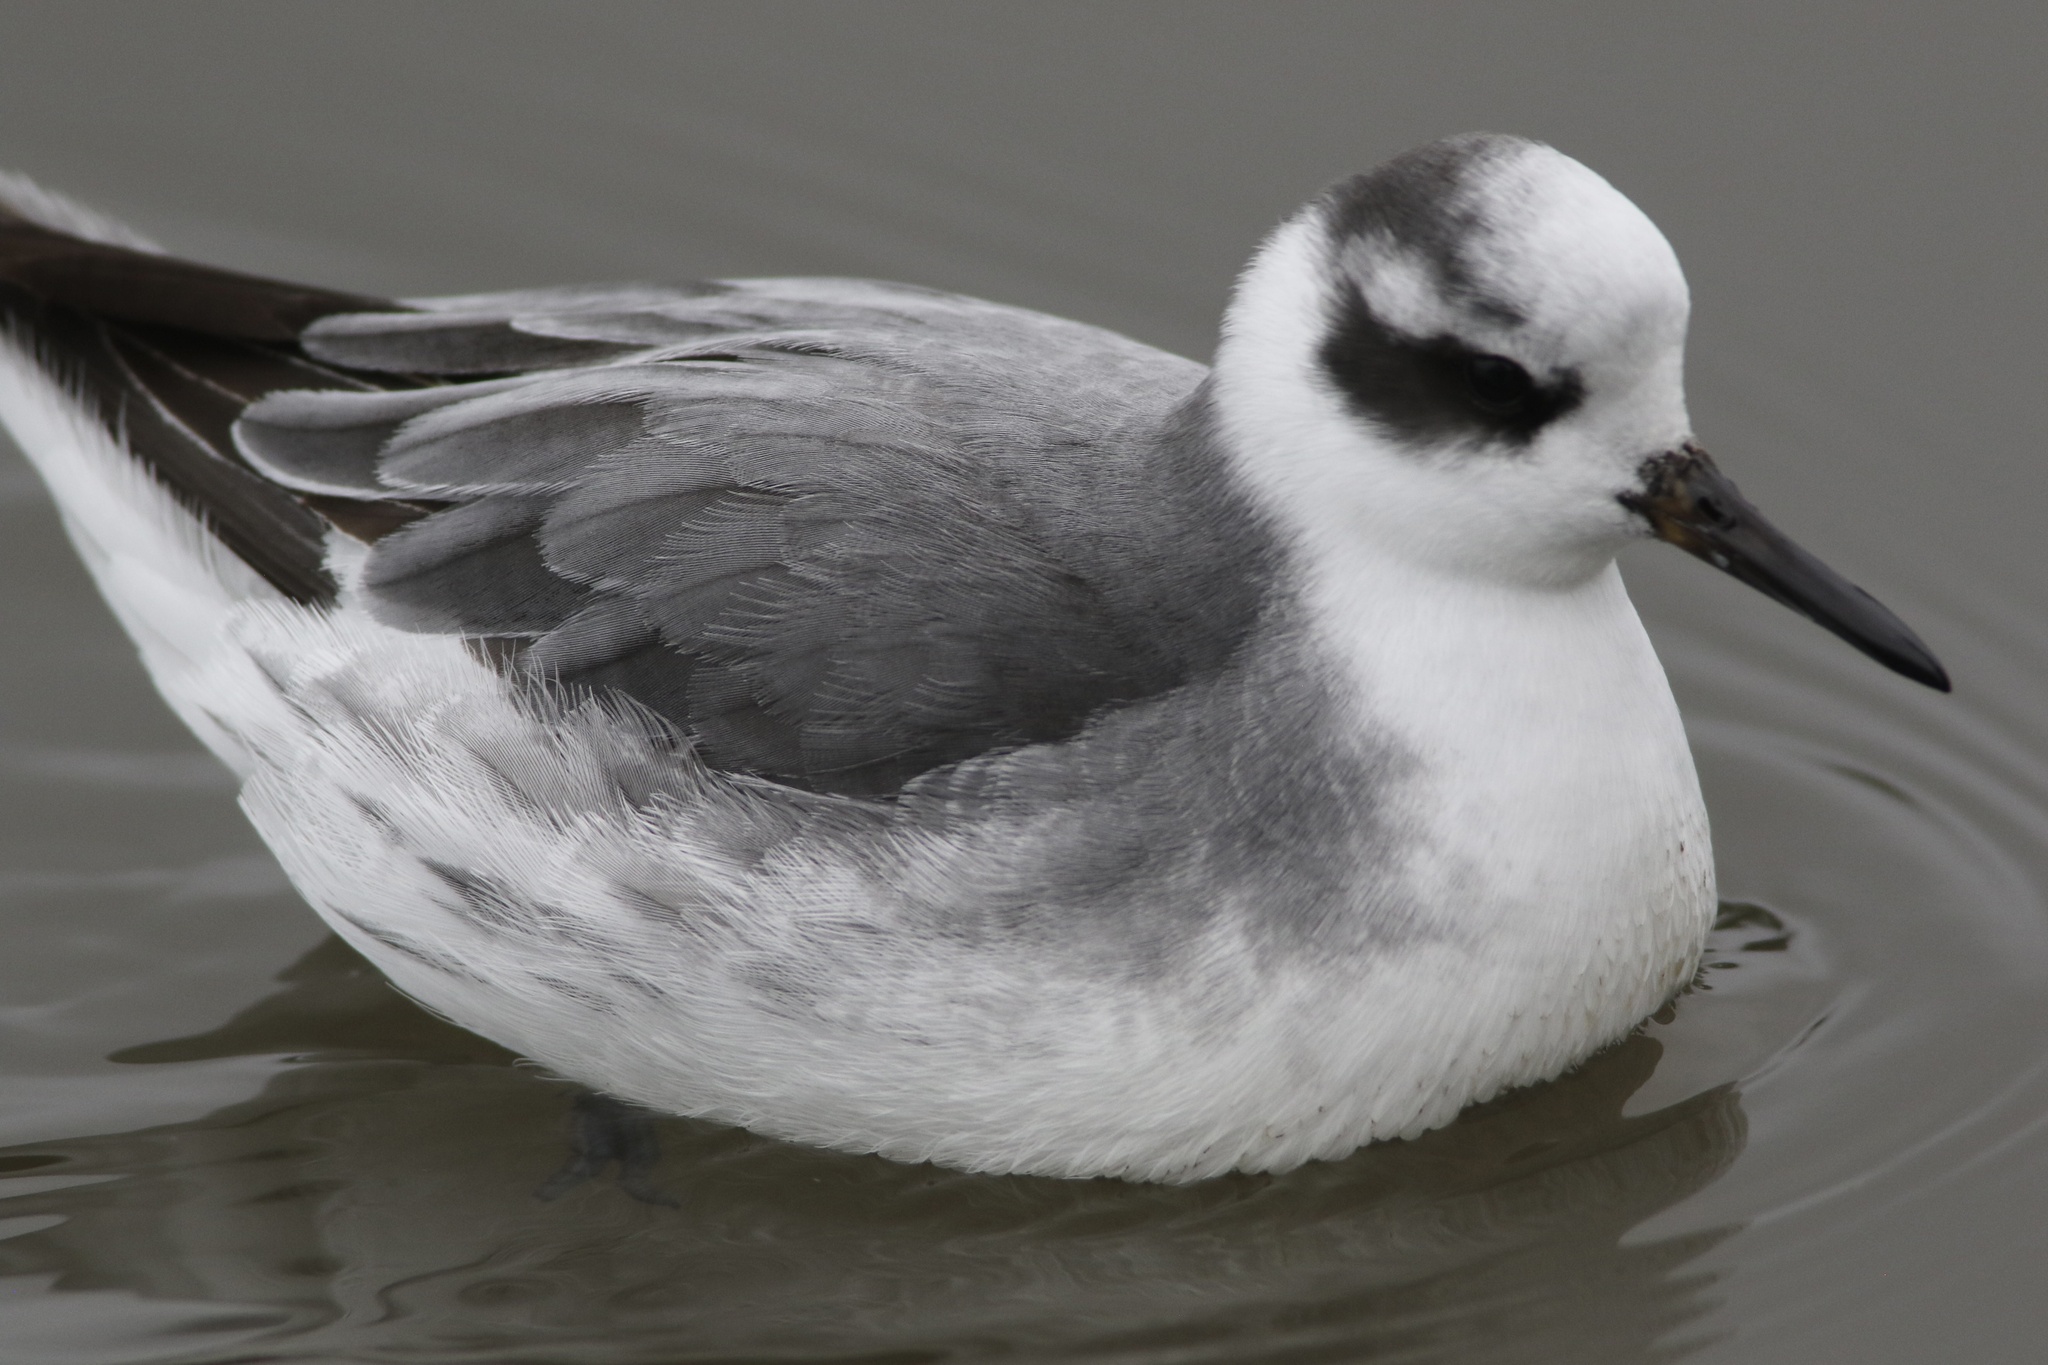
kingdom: Animalia
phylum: Chordata
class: Aves
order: Charadriiformes
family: Scolopacidae
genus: Phalaropus
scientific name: Phalaropus fulicarius
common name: Red phalarope
